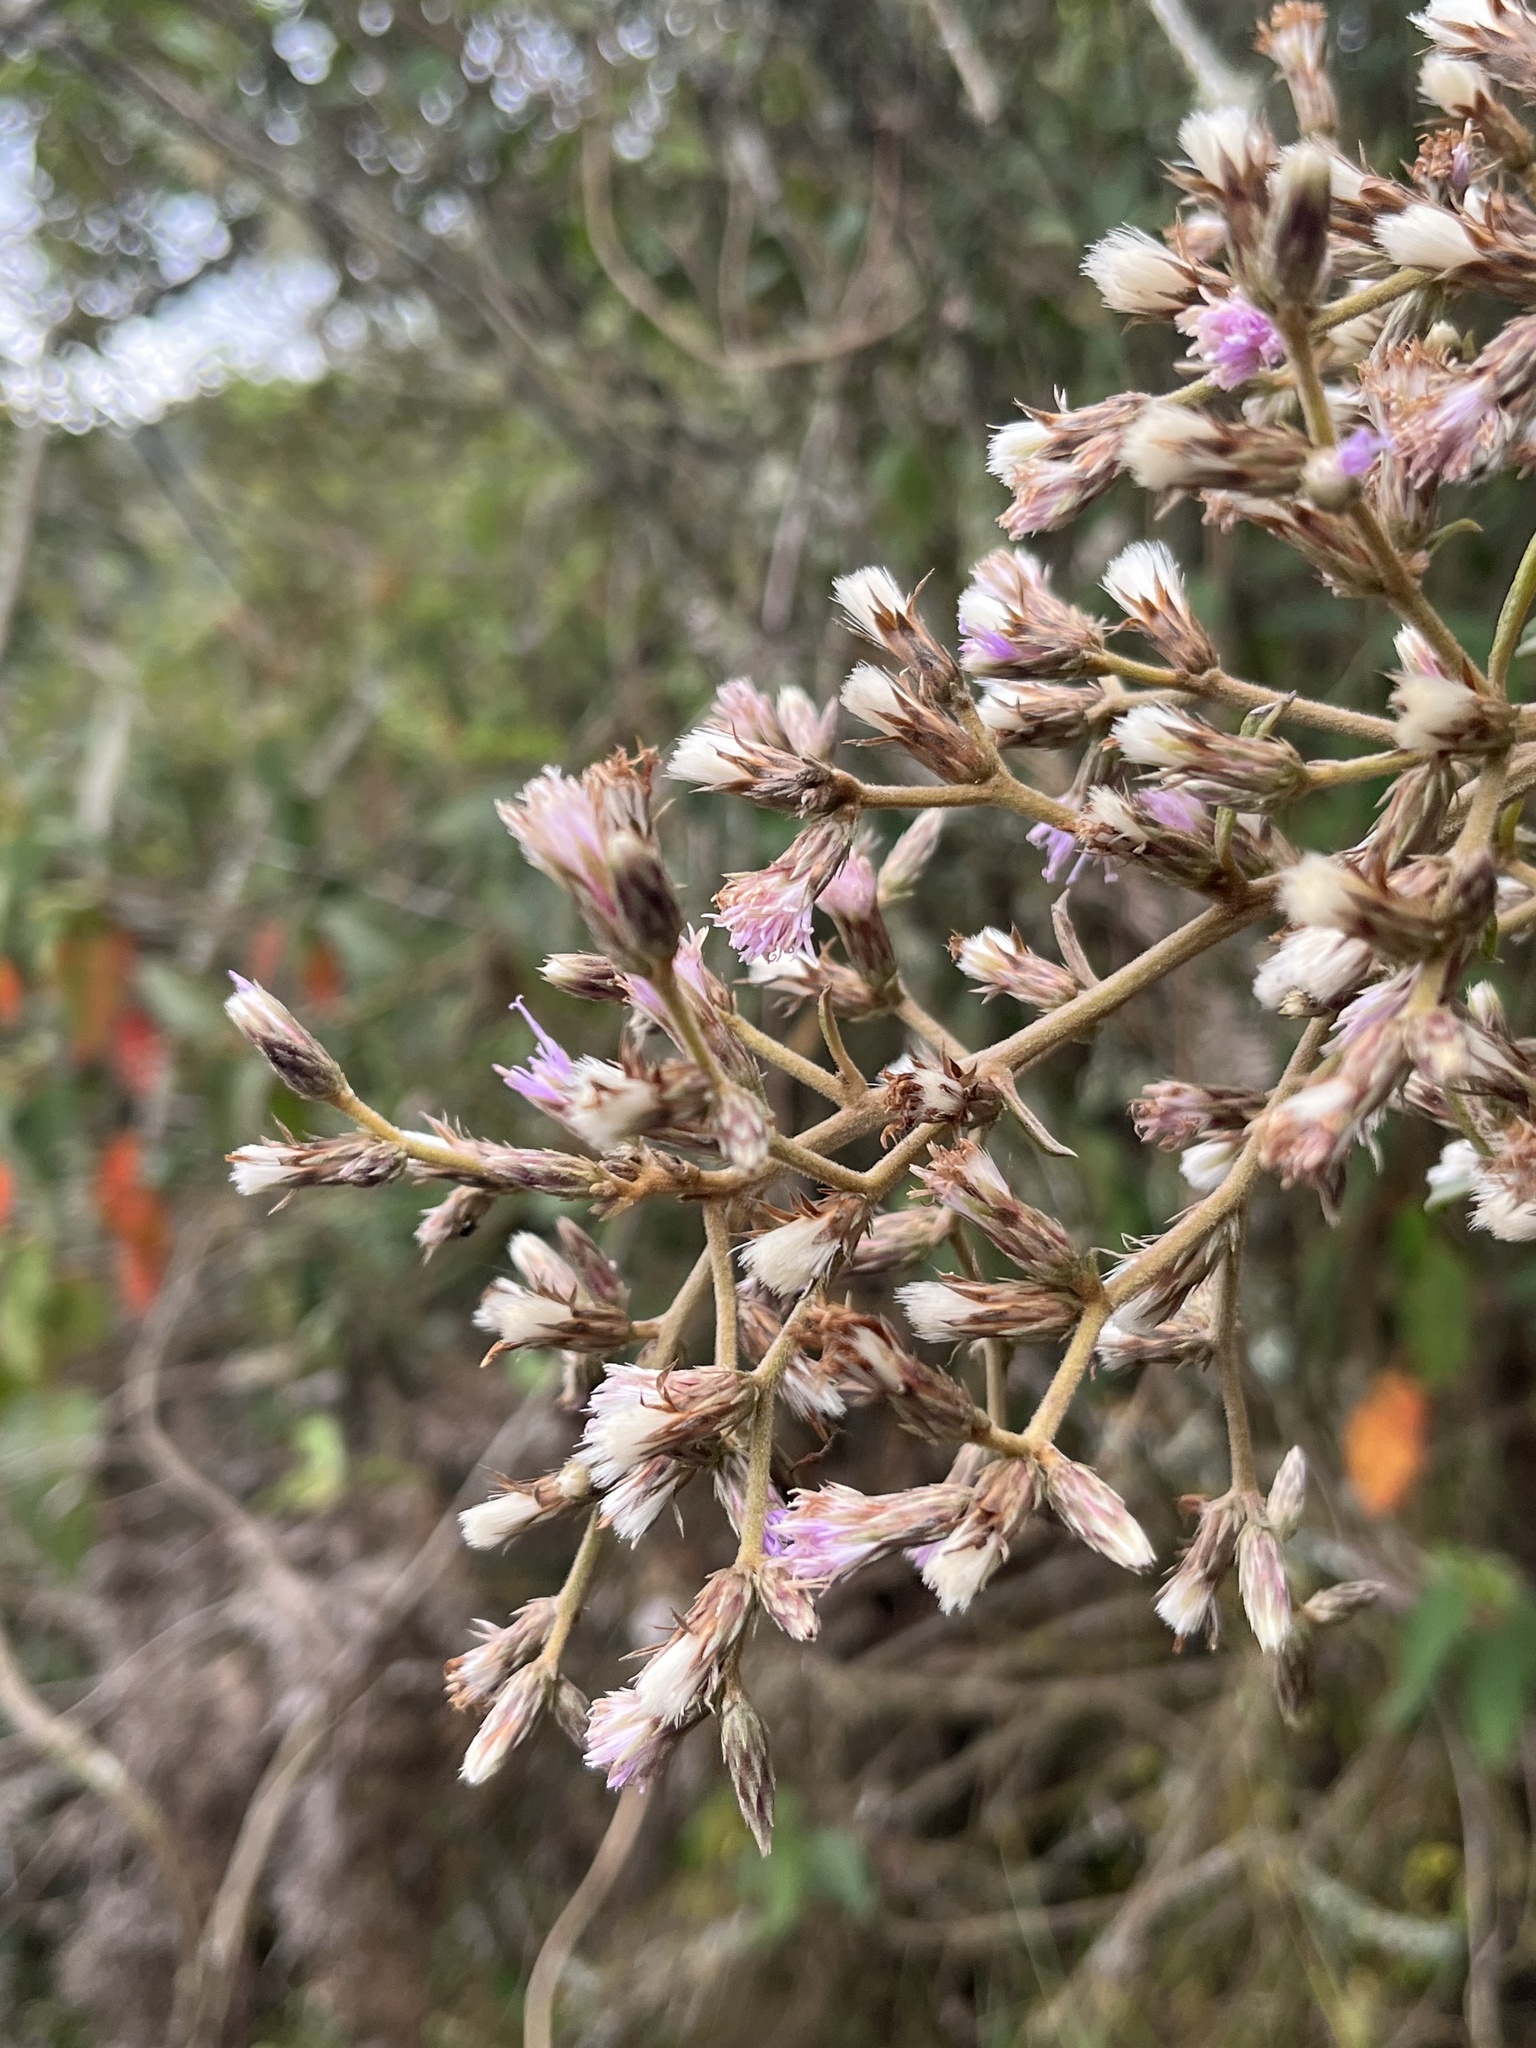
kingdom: Plantae
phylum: Tracheophyta
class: Magnoliopsida
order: Asterales
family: Asteraceae
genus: Lepidaploa
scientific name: Lepidaploa canescens
